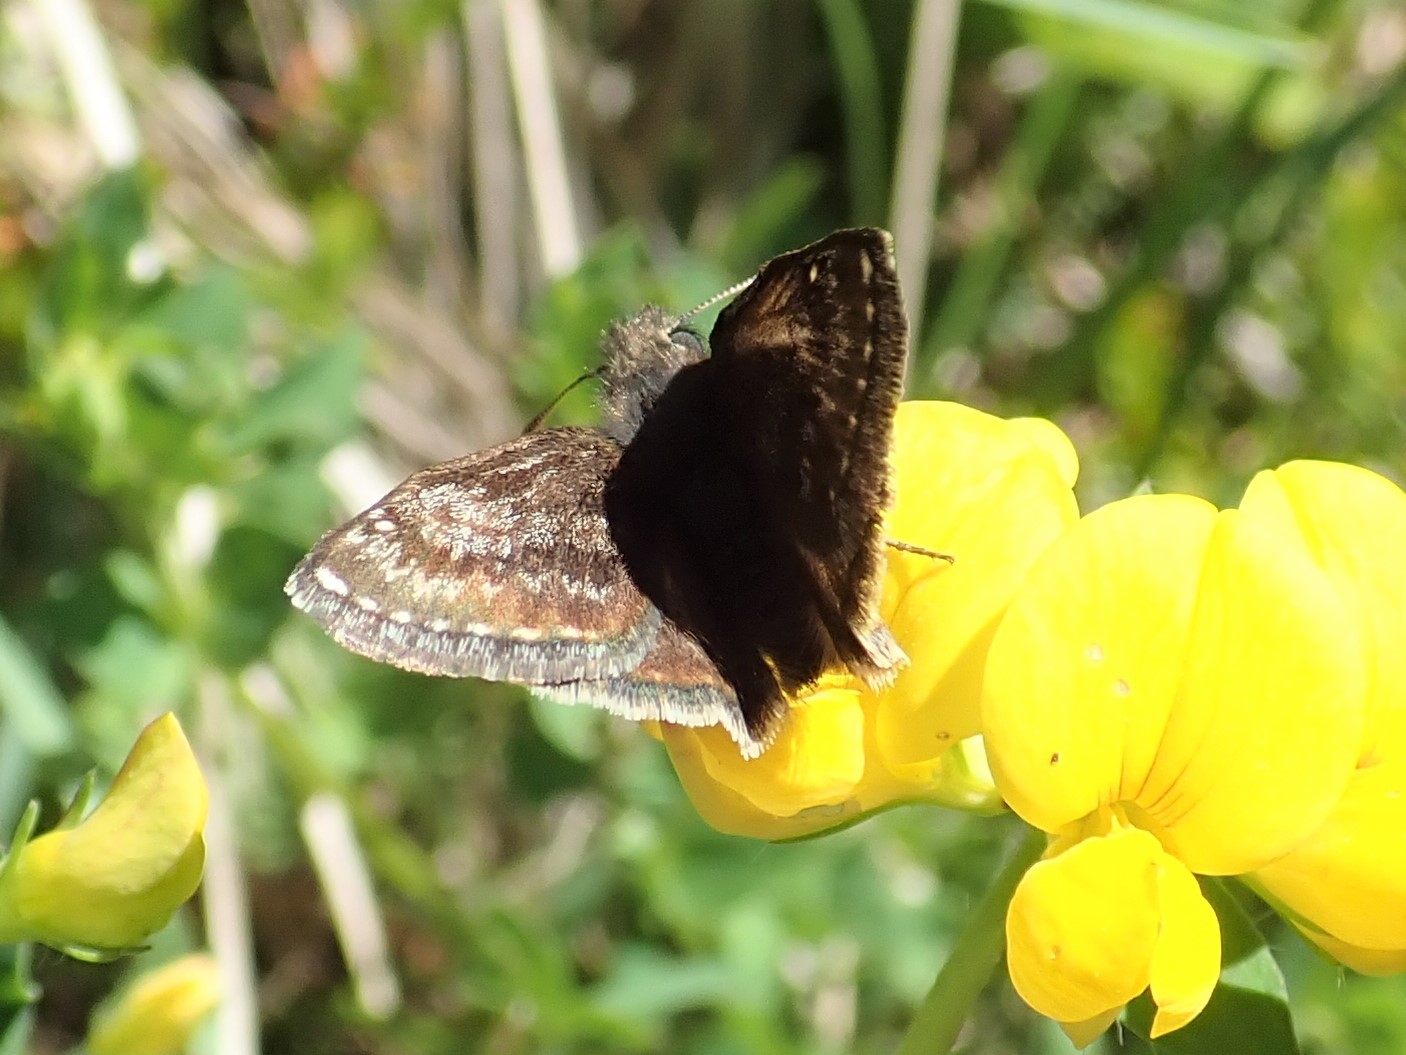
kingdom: Animalia
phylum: Arthropoda
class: Insecta
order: Lepidoptera
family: Hesperiidae
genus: Erynnis
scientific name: Erynnis tages
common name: Dingy skipper
